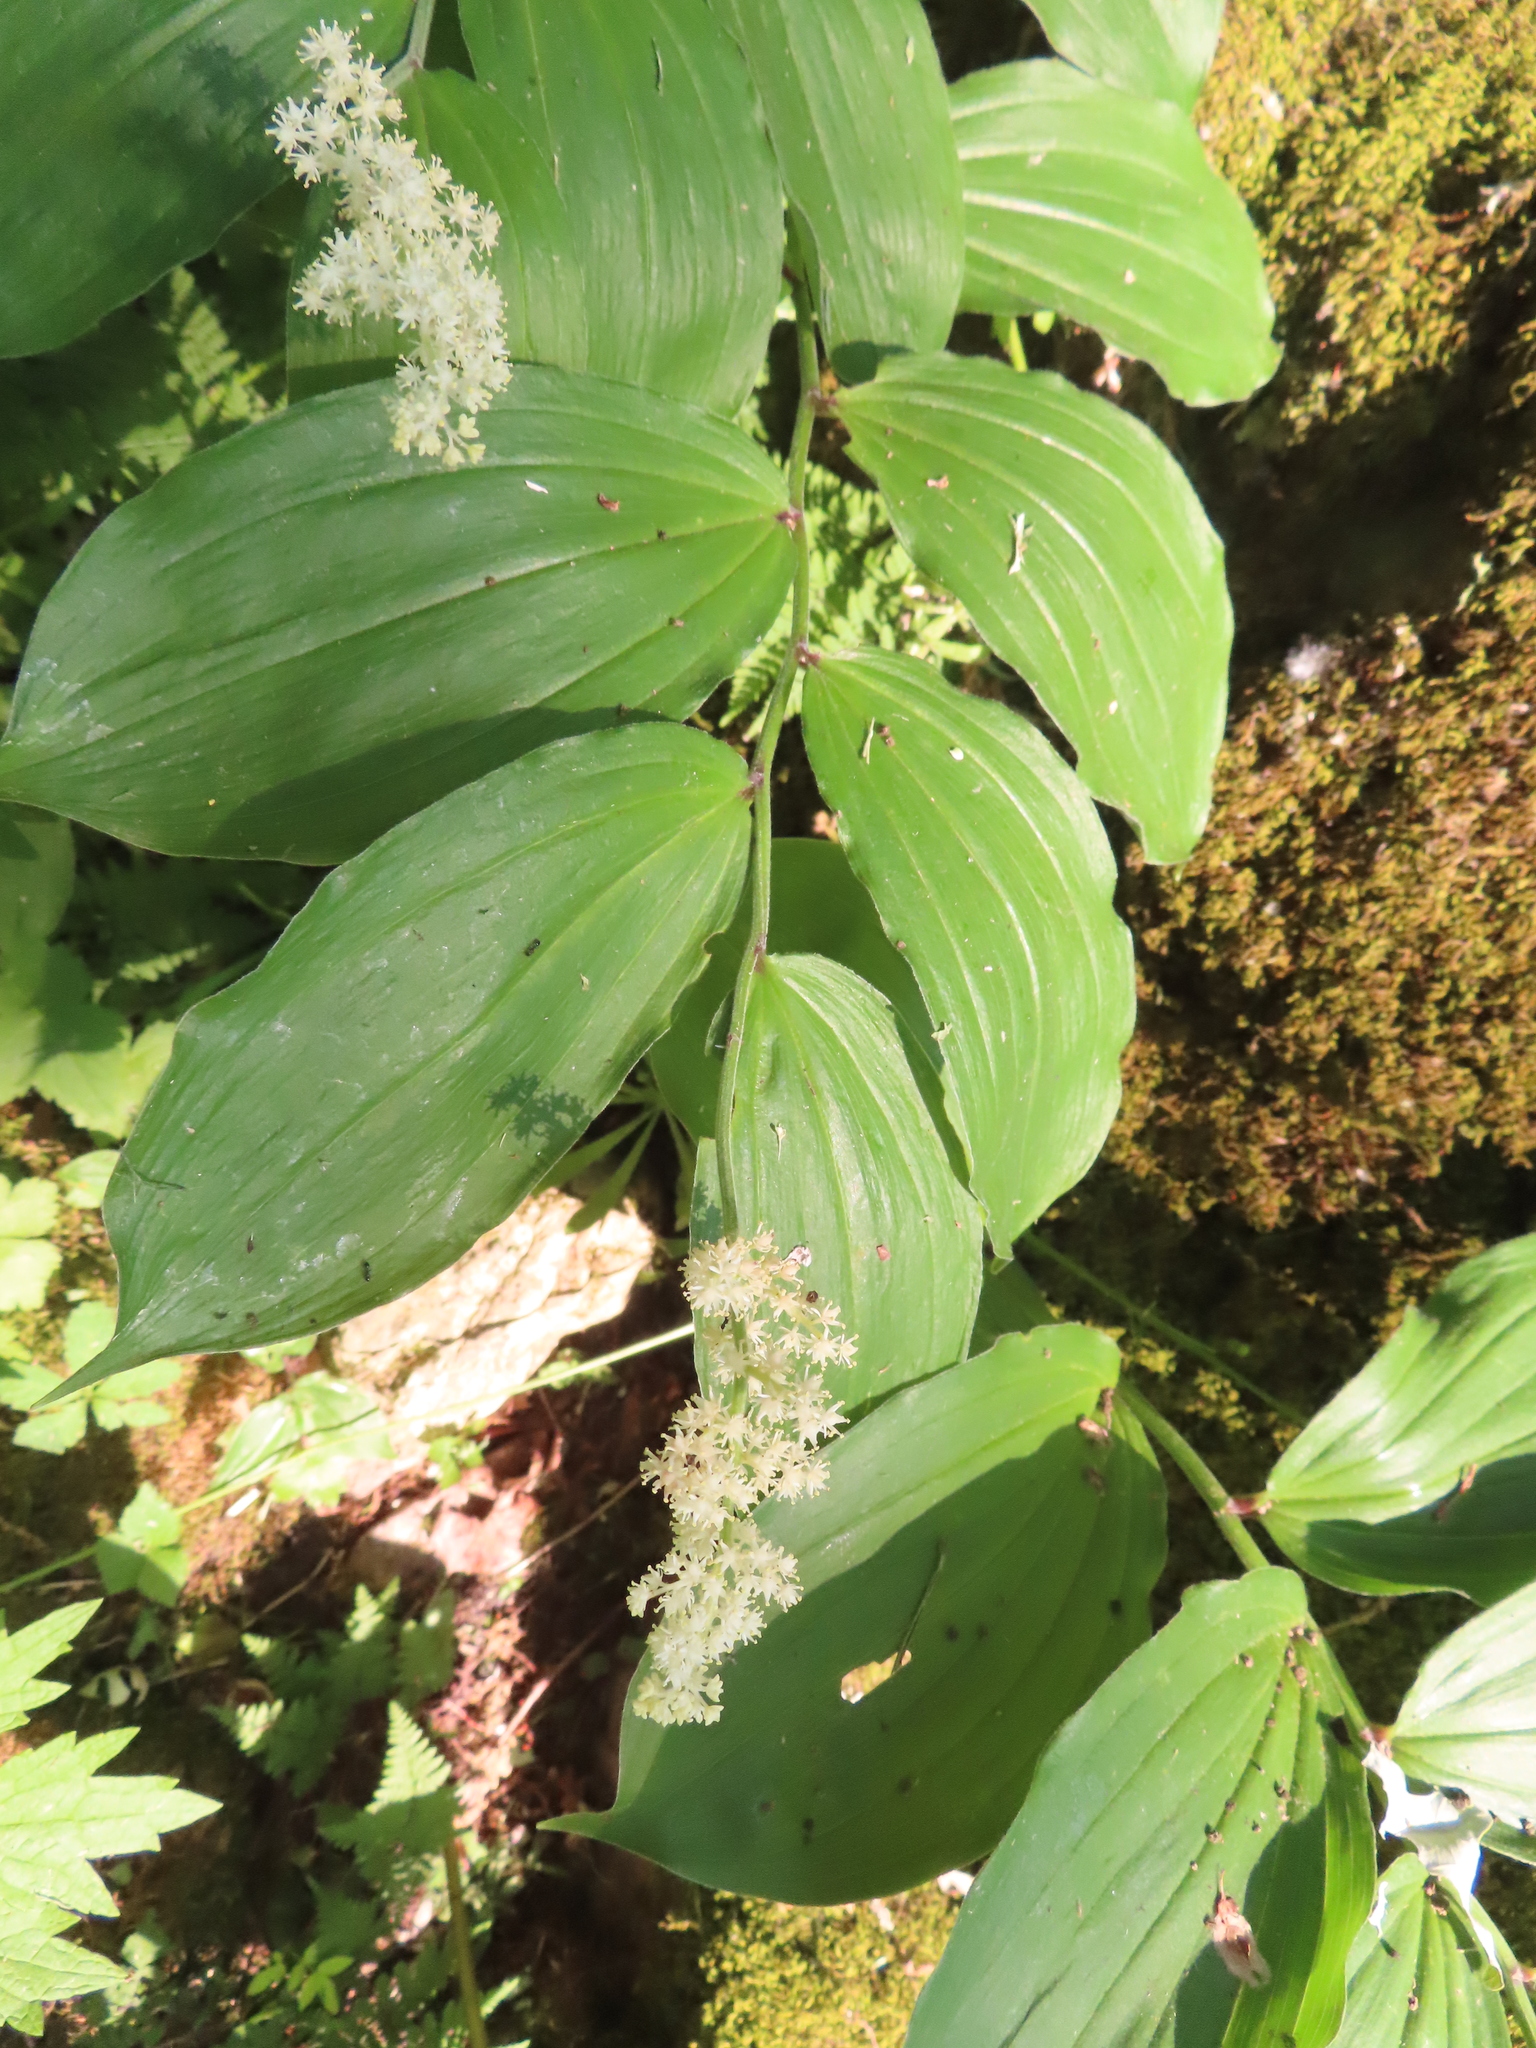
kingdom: Plantae
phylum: Tracheophyta
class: Liliopsida
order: Asparagales
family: Asparagaceae
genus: Maianthemum
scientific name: Maianthemum racemosum
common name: False spikenard
